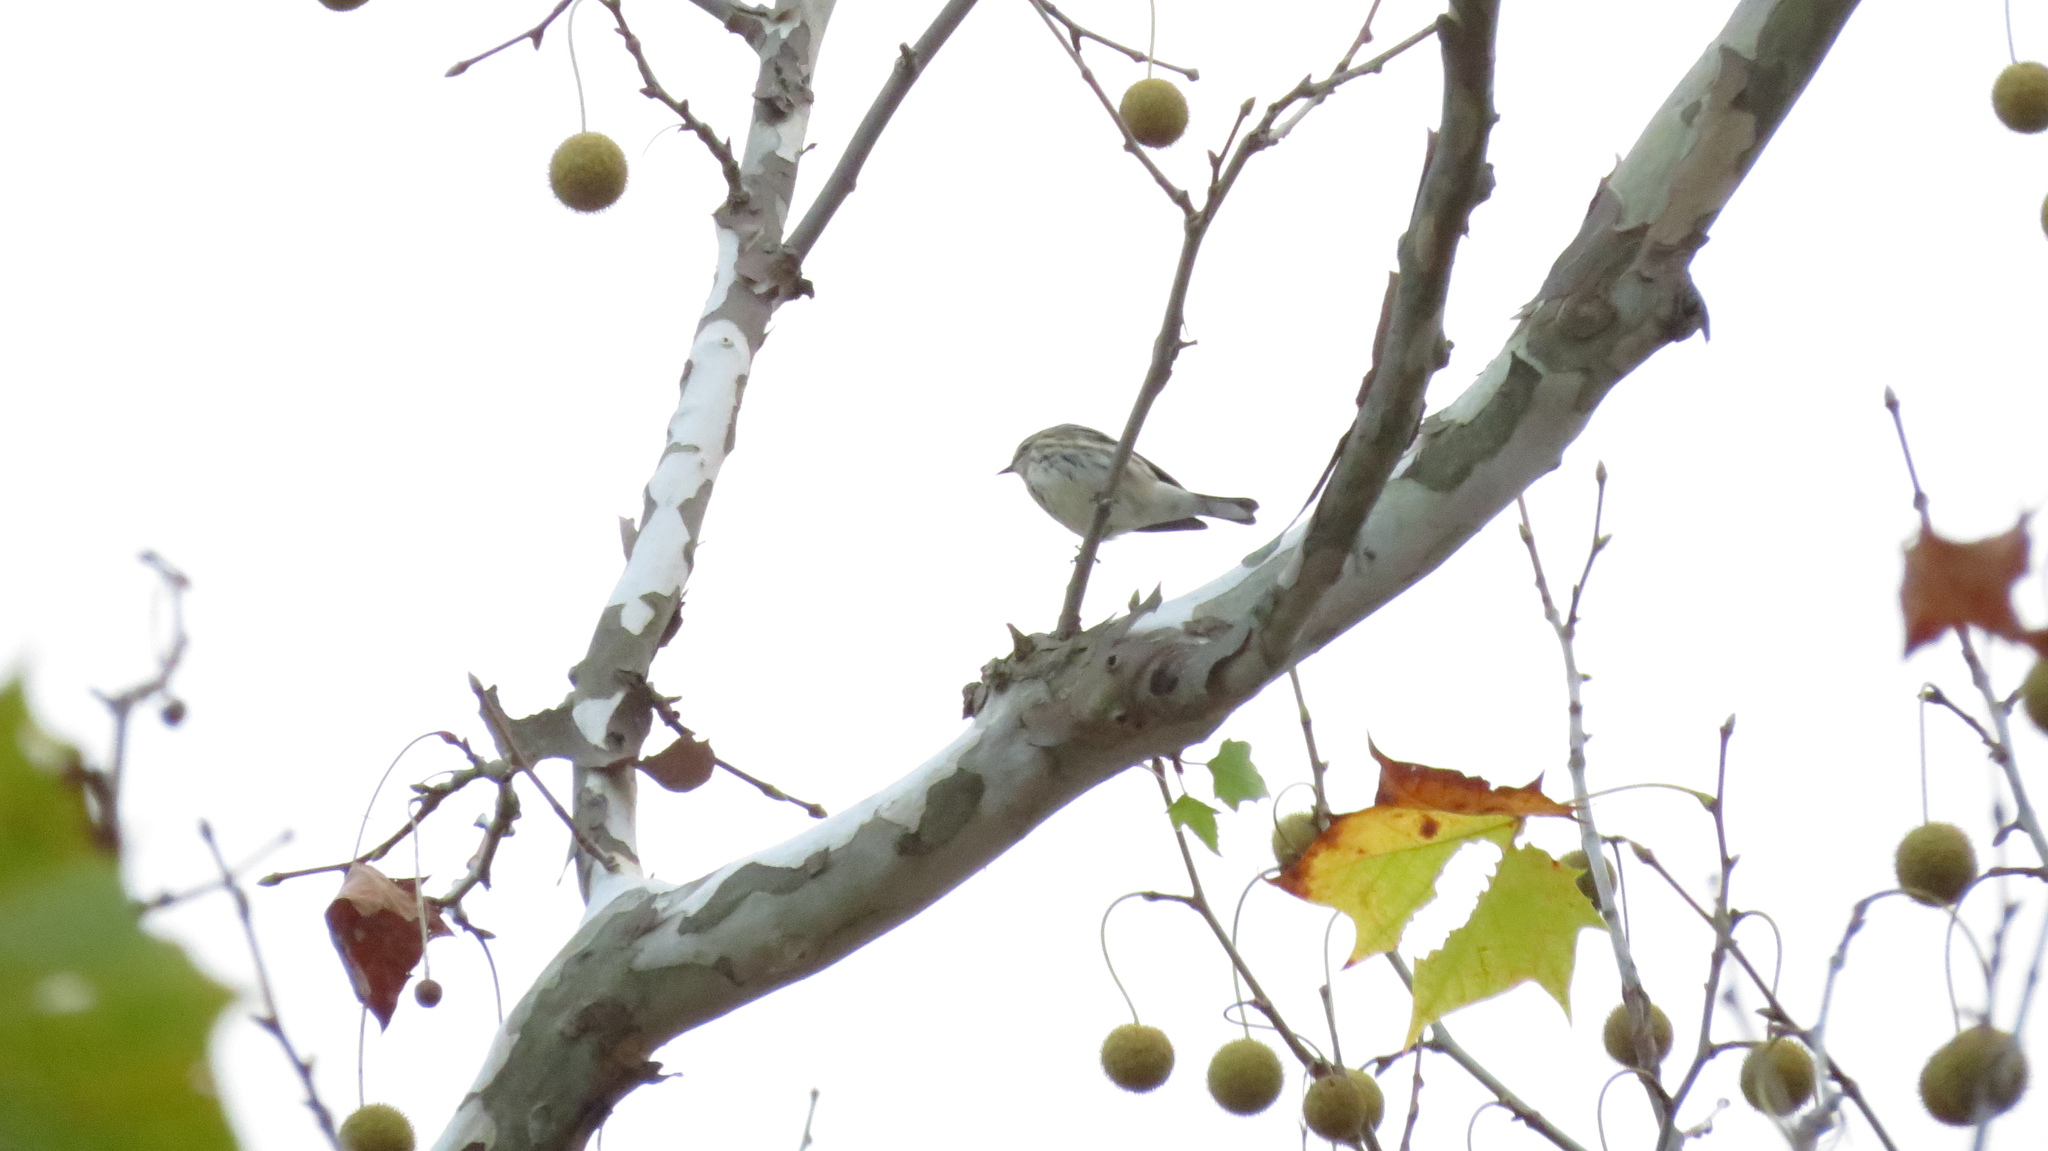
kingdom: Animalia
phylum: Chordata
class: Aves
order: Passeriformes
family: Parulidae
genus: Setophaga
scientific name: Setophaga coronata
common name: Myrtle warbler
